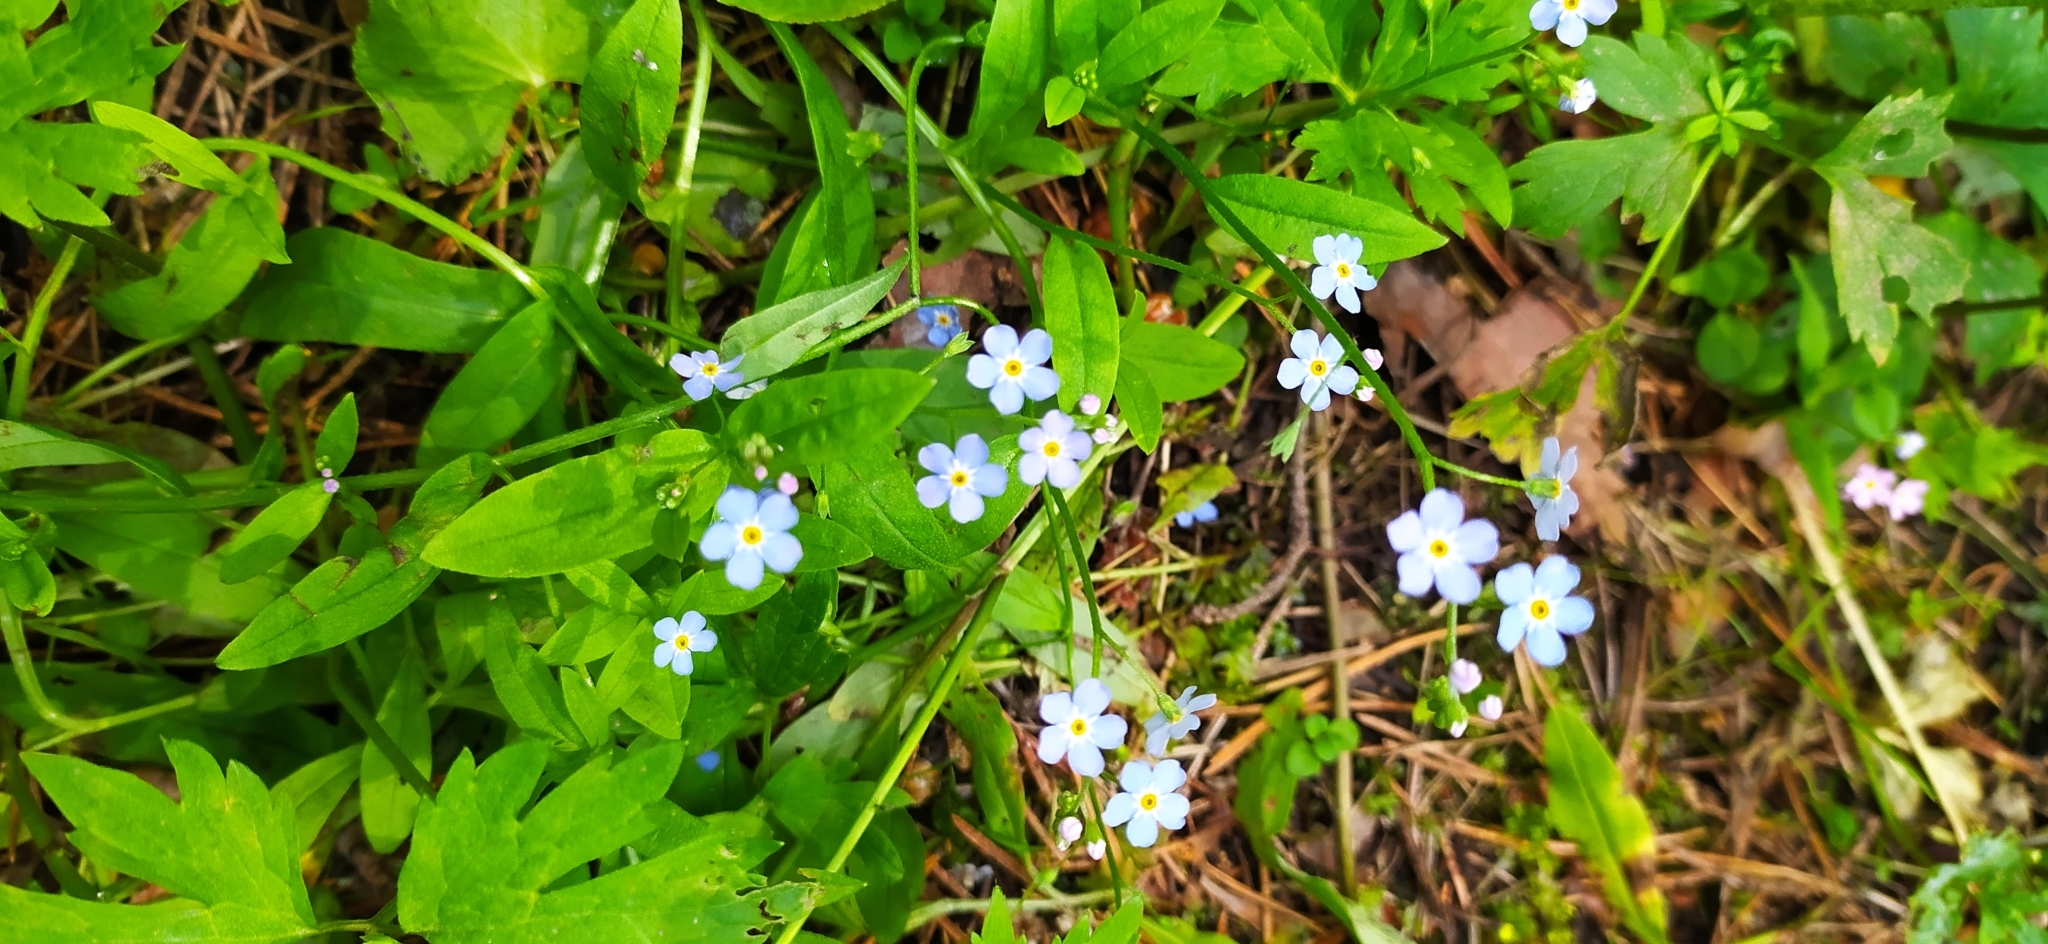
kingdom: Plantae
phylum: Tracheophyta
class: Magnoliopsida
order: Boraginales
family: Boraginaceae
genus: Myosotis
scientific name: Myosotis scorpioides
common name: Water forget-me-not
